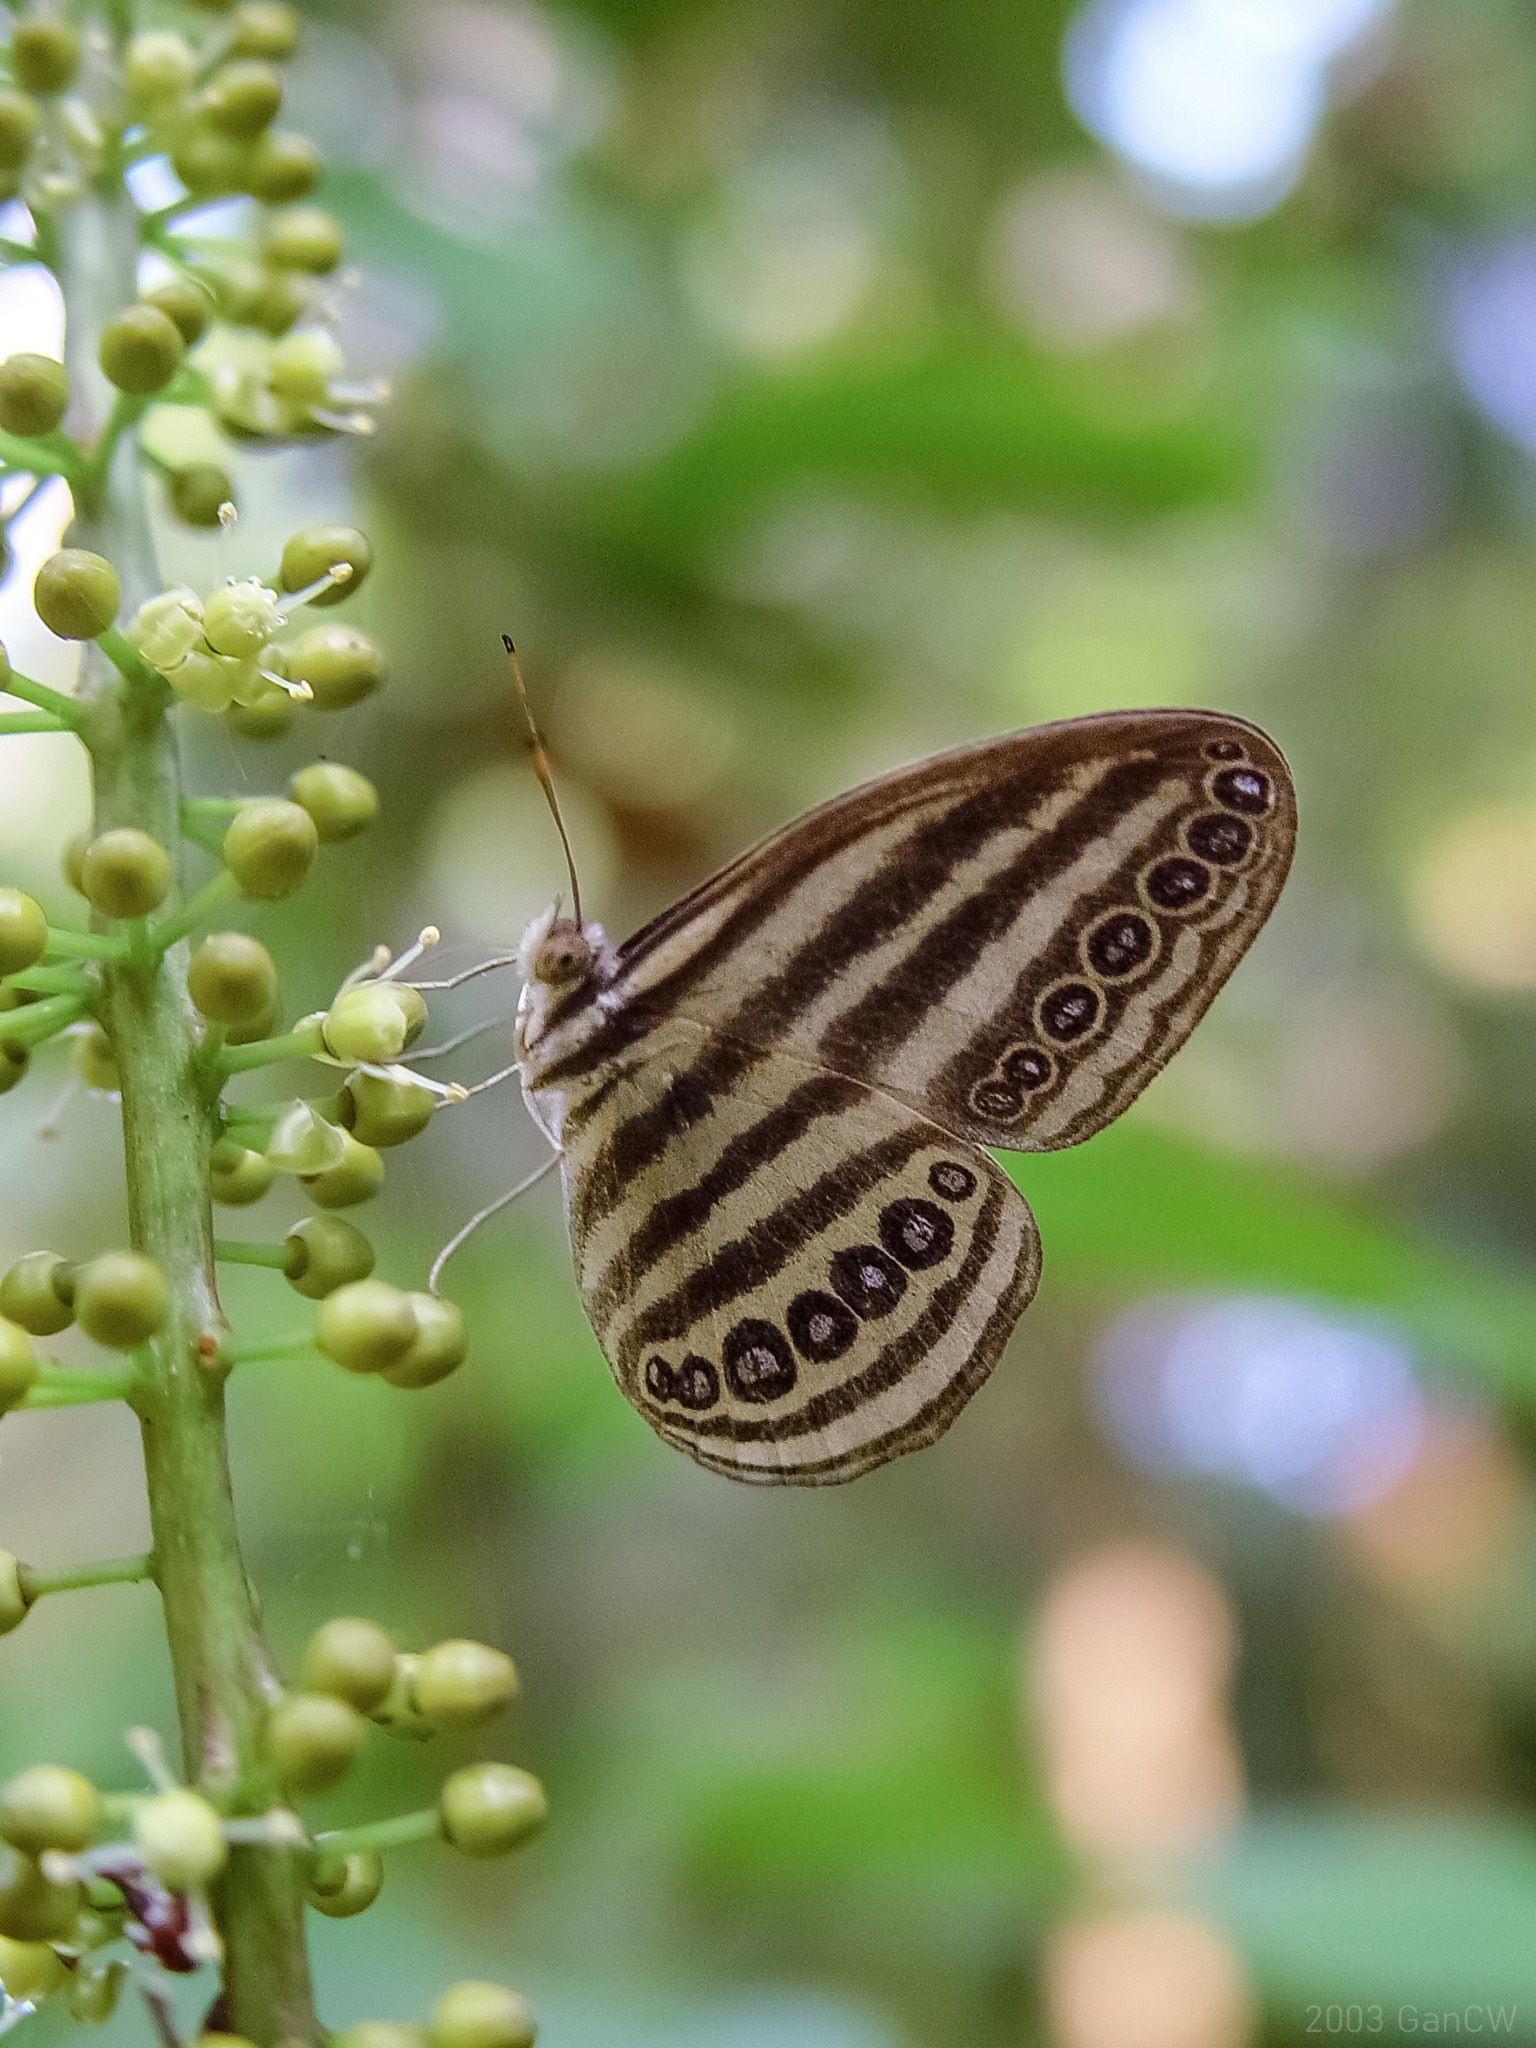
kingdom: Animalia
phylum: Arthropoda
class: Insecta
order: Lepidoptera
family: Nymphalidae
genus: Ragadia
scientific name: Ragadia makuta
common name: Striped ringlet
